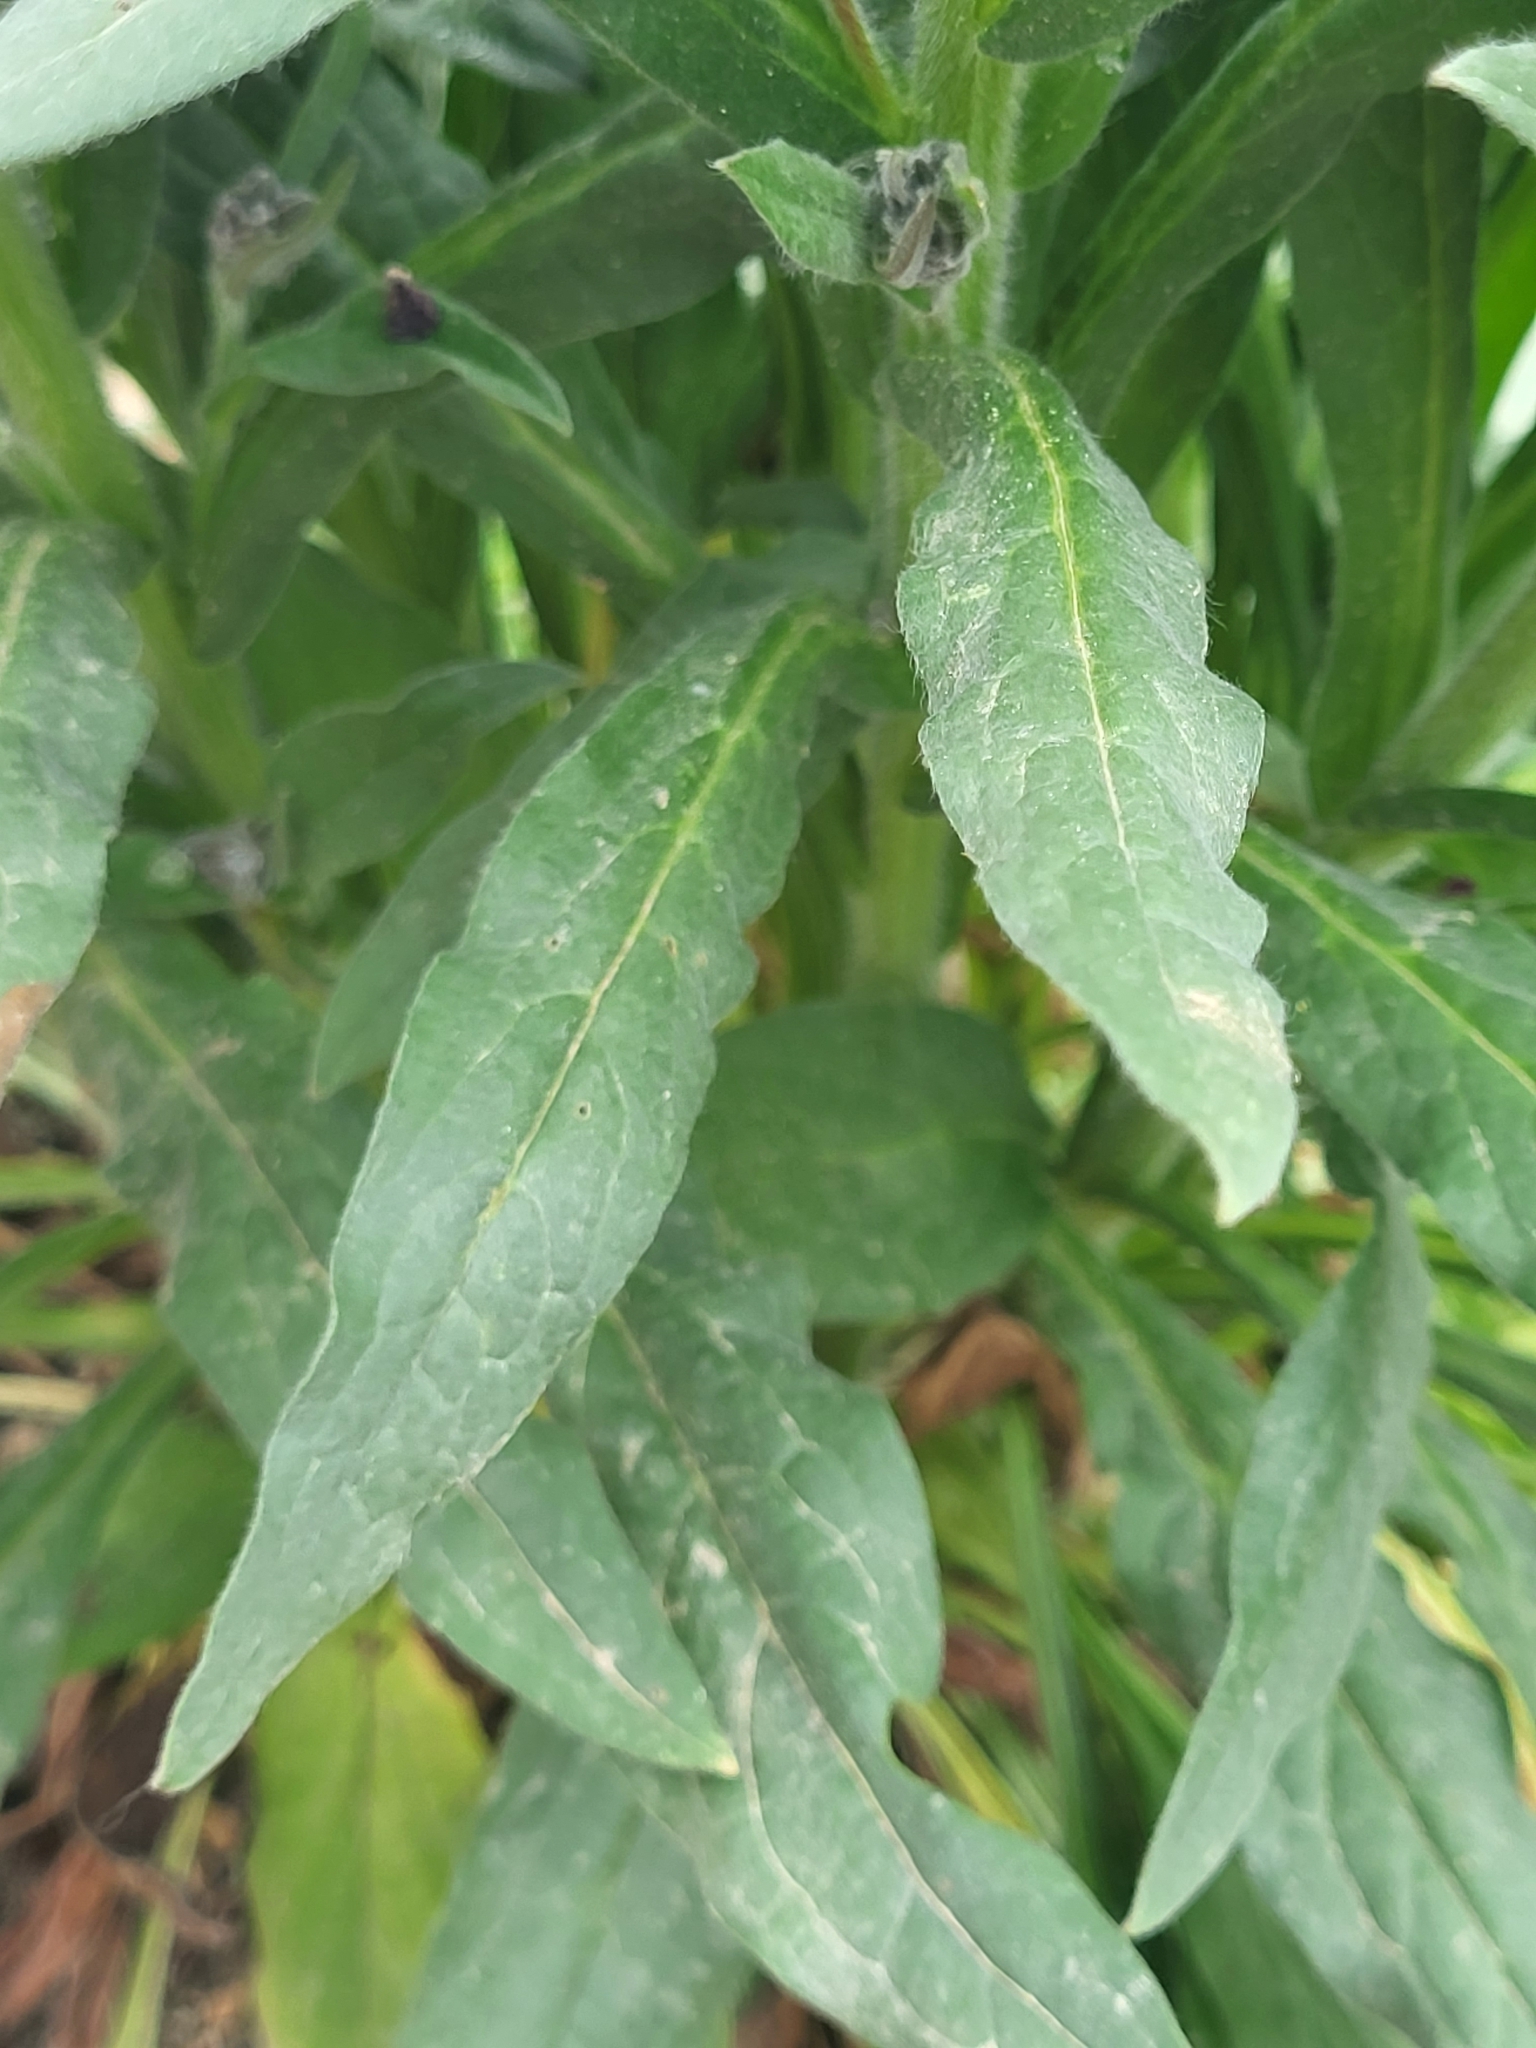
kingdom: Plantae
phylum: Tracheophyta
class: Magnoliopsida
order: Boraginales
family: Boraginaceae
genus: Cynoglossum
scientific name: Cynoglossum officinale
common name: Hound's-tongue
